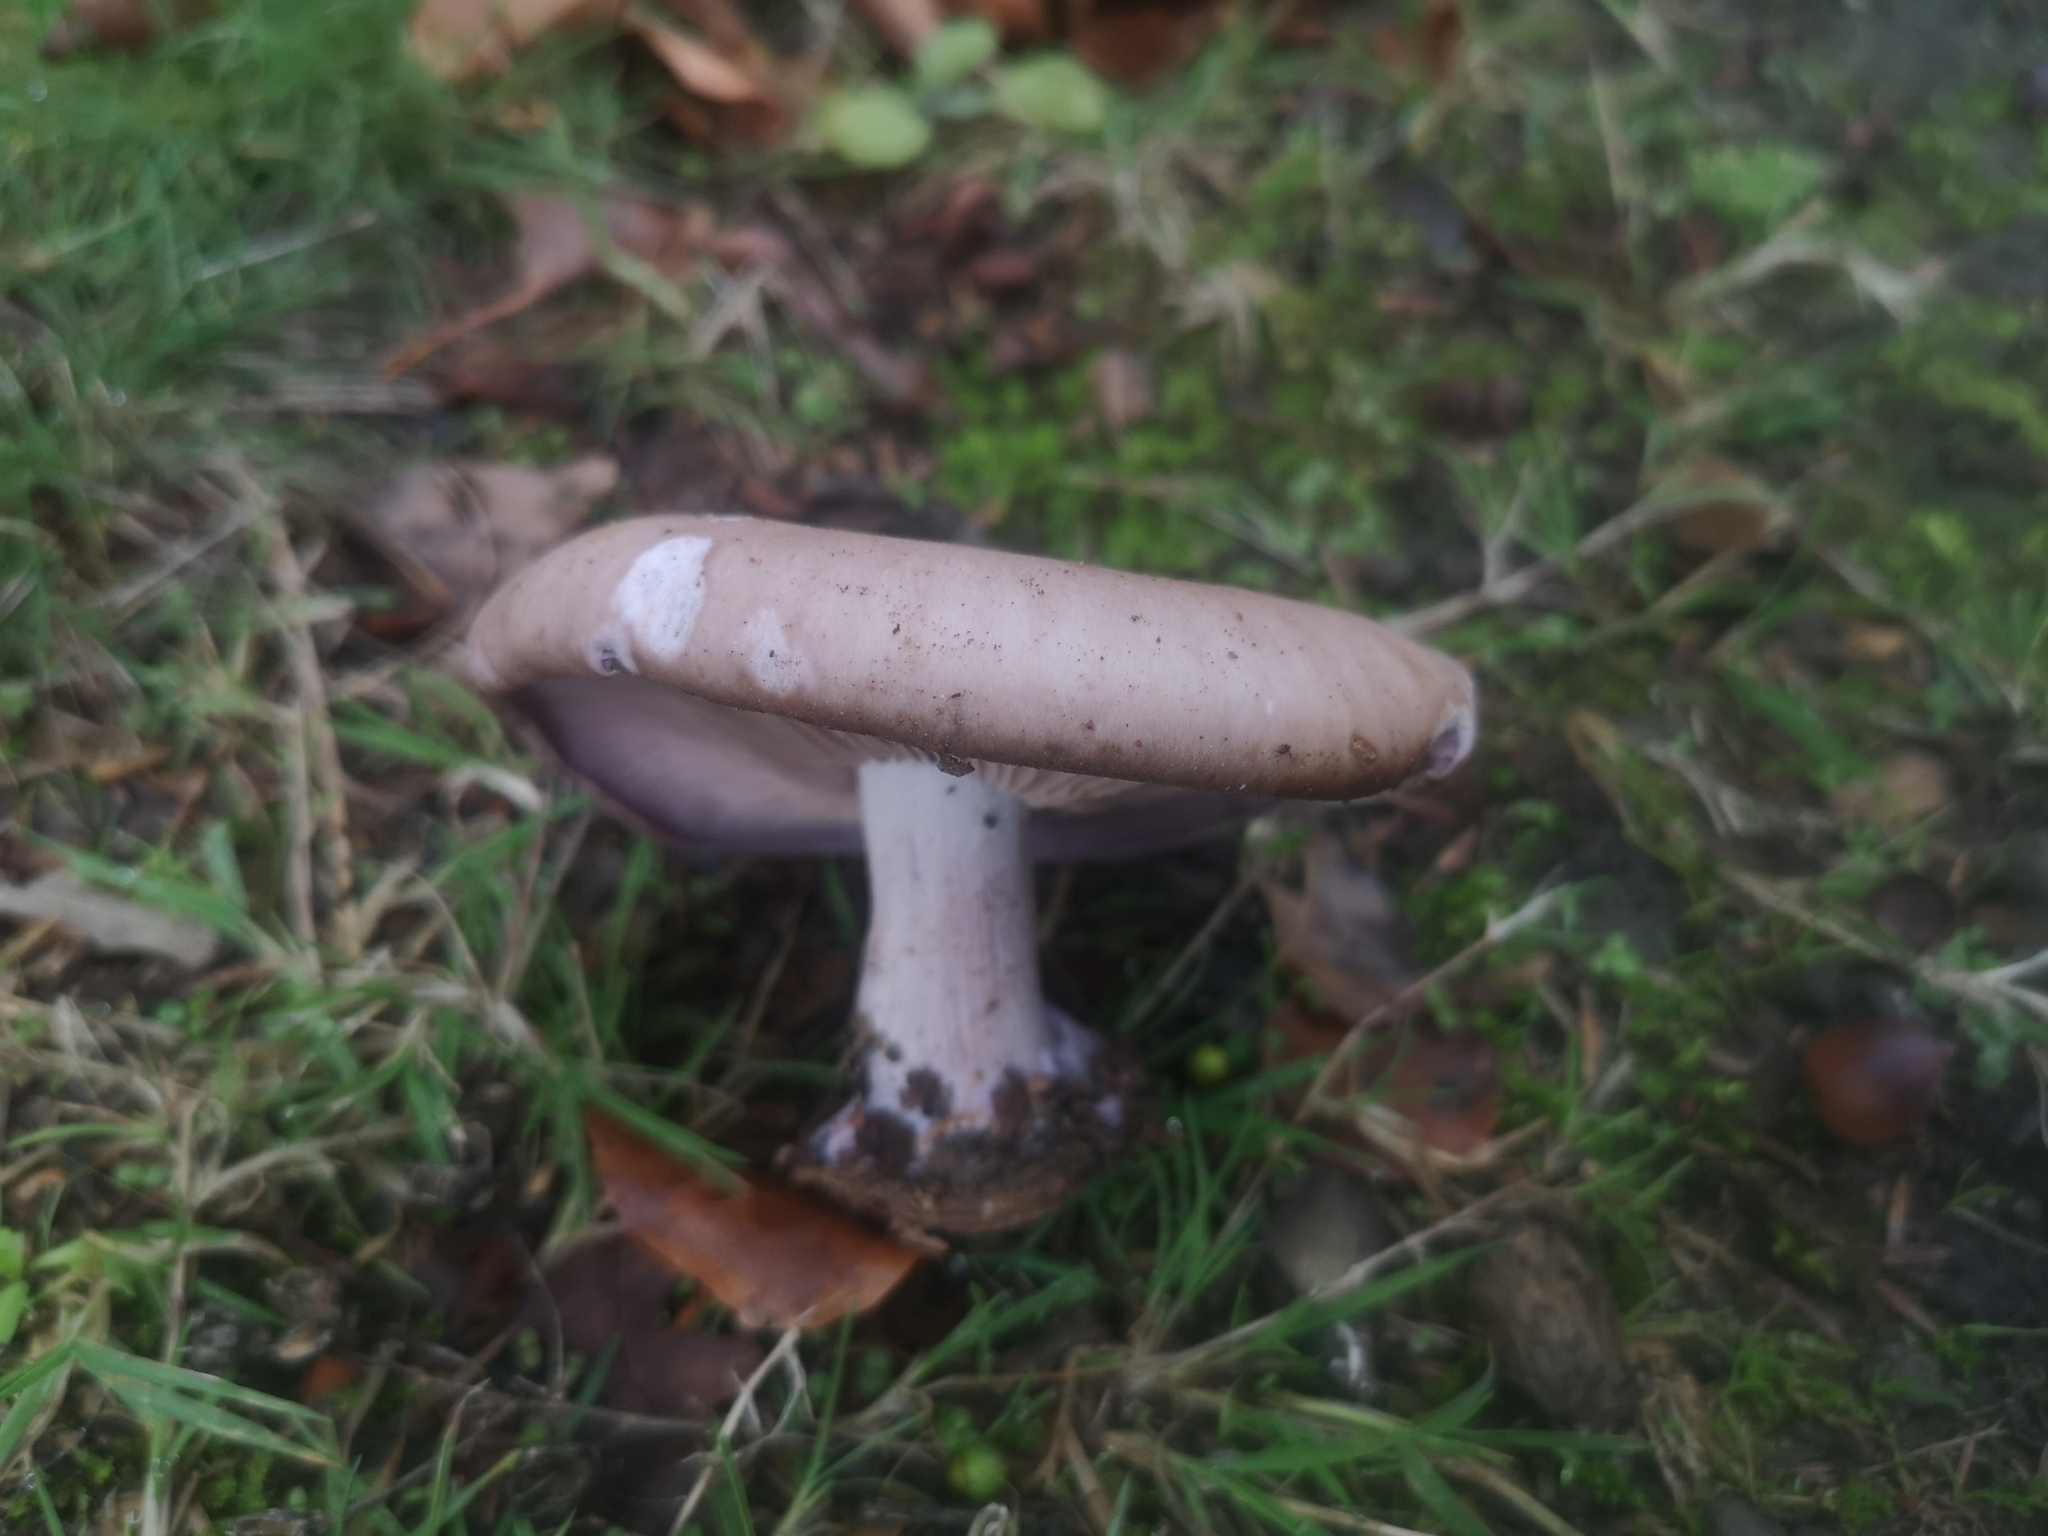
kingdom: Fungi
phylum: Basidiomycota
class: Agaricomycetes
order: Agaricales
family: Tricholomataceae
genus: Collybia
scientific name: Collybia
